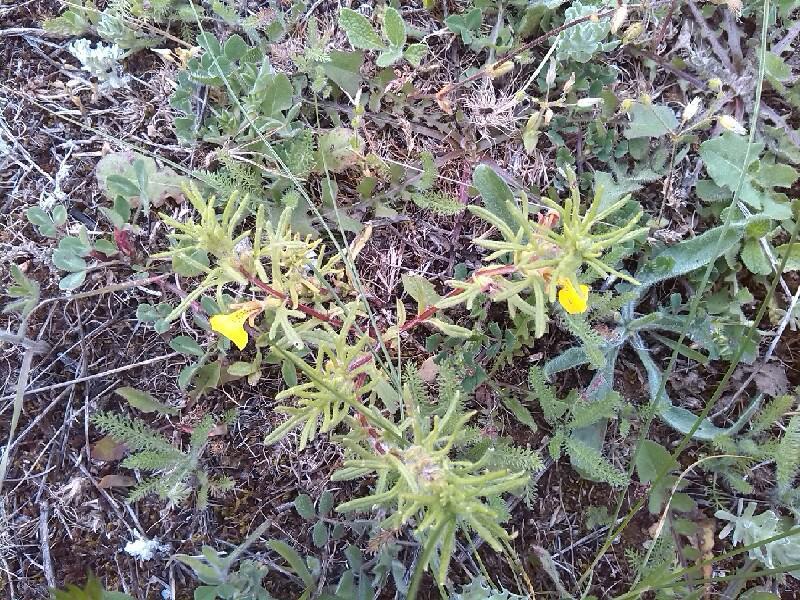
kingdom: Plantae
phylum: Tracheophyta
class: Magnoliopsida
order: Lamiales
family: Lamiaceae
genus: Ajuga
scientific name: Ajuga chamaepitys
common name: Ground-pine
